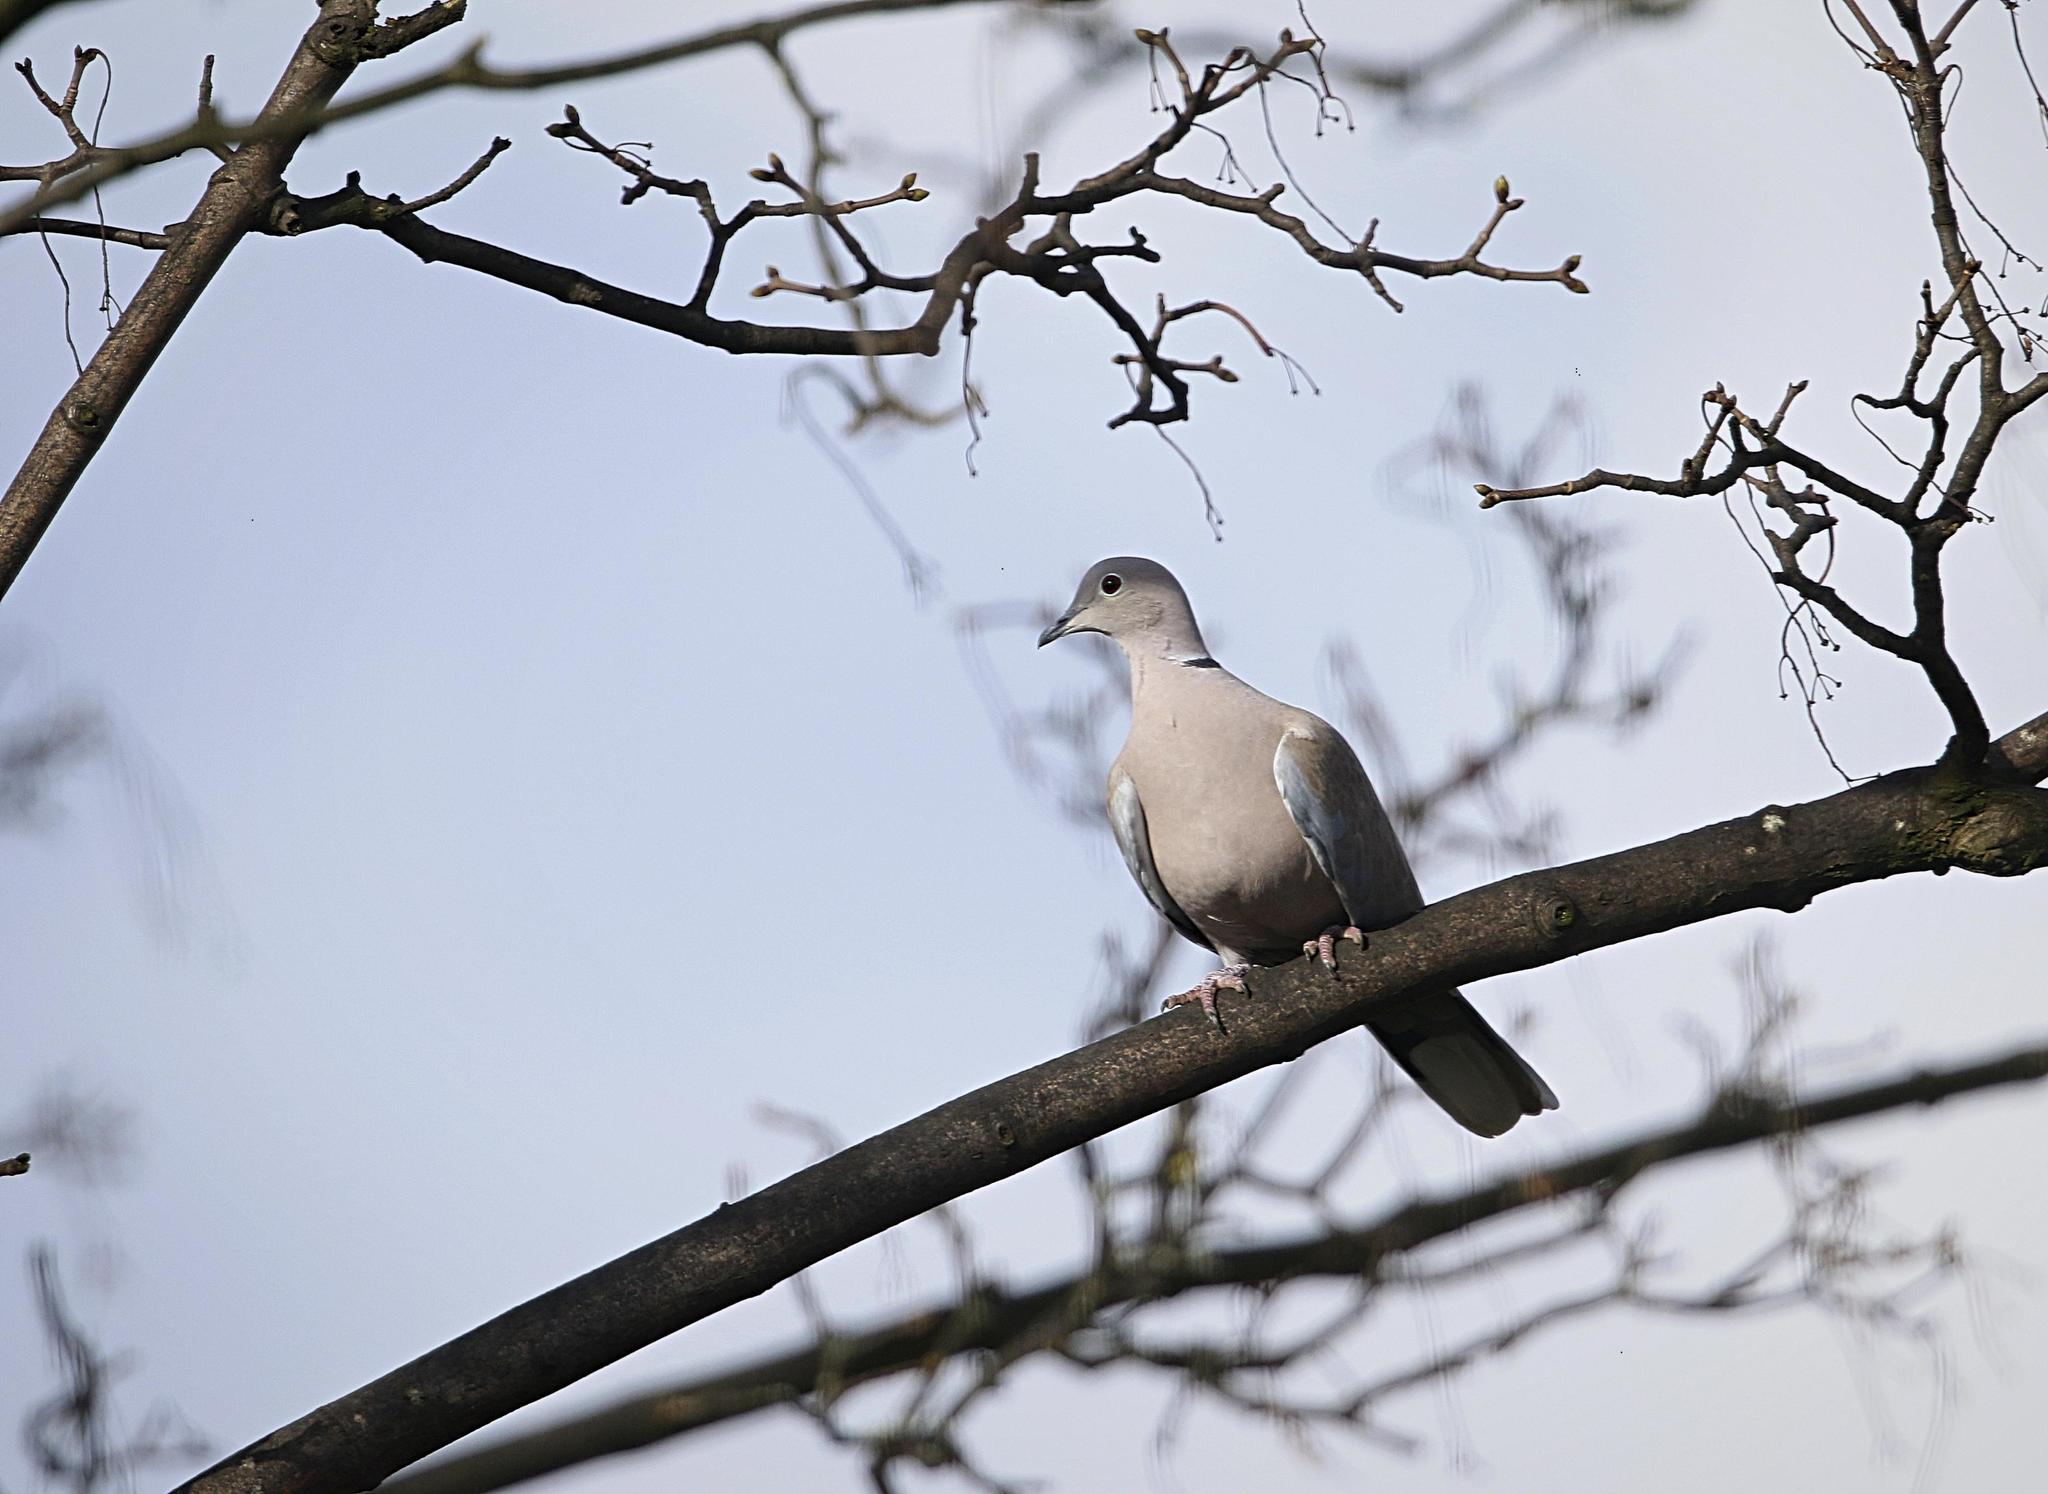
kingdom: Animalia
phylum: Chordata
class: Aves
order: Columbiformes
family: Columbidae
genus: Streptopelia
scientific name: Streptopelia decaocto
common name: Eurasian collared dove
